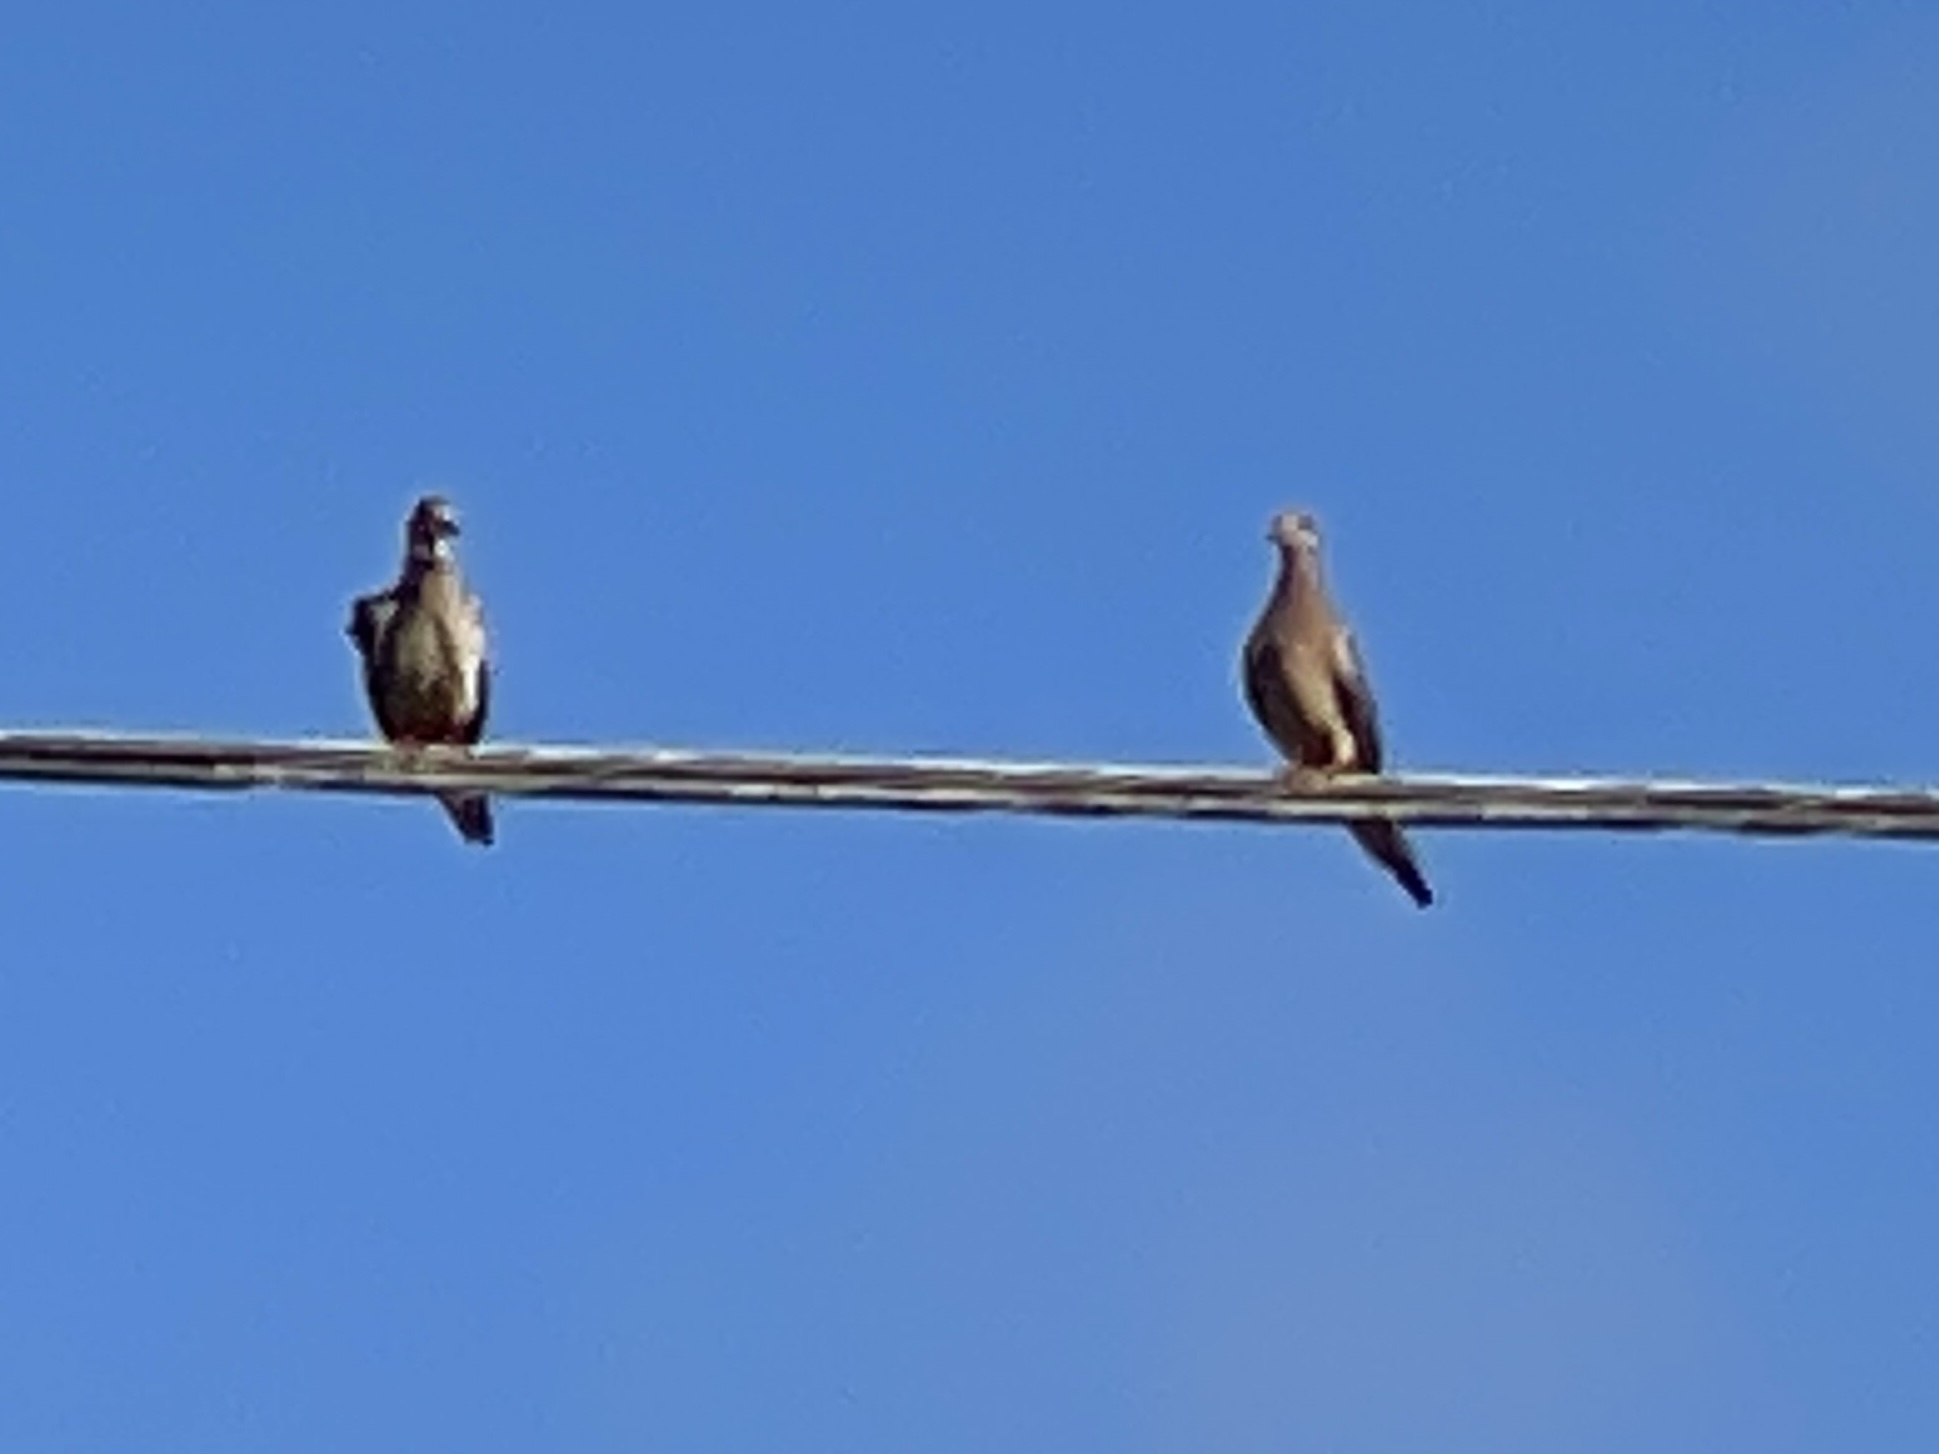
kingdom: Animalia
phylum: Chordata
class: Aves
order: Columbiformes
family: Columbidae
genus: Zenaida
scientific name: Zenaida macroura
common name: Mourning dove
